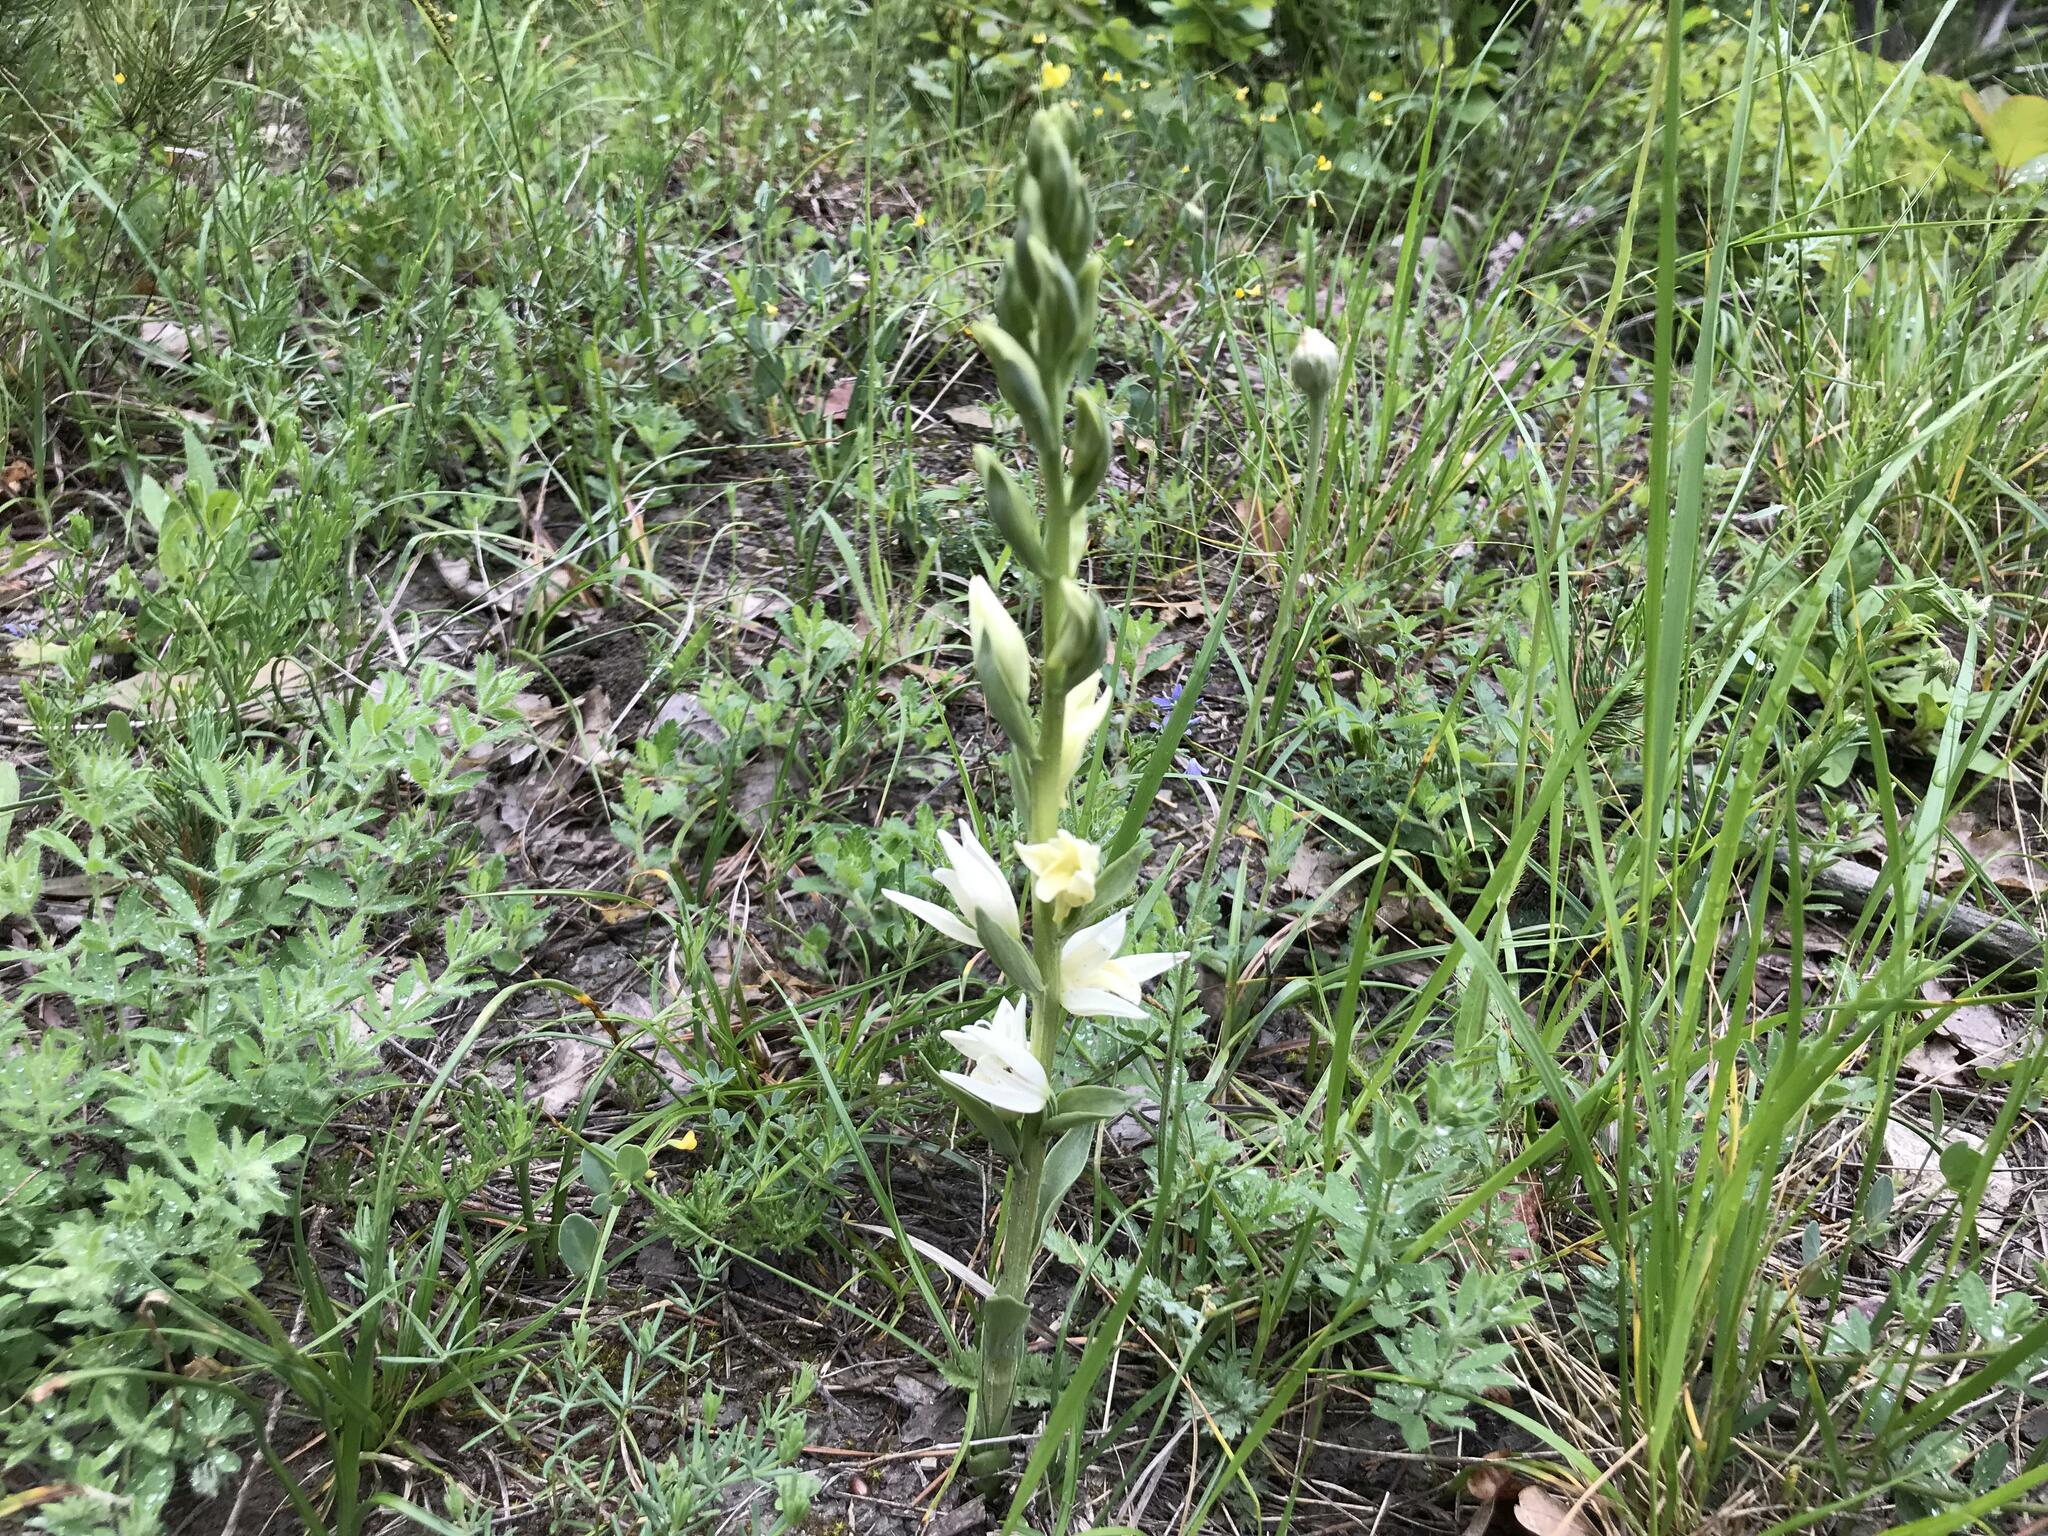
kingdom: Plantae
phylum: Tracheophyta
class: Liliopsida
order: Asparagales
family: Orchidaceae
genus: Cephalanthera
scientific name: Cephalanthera epipactoides
